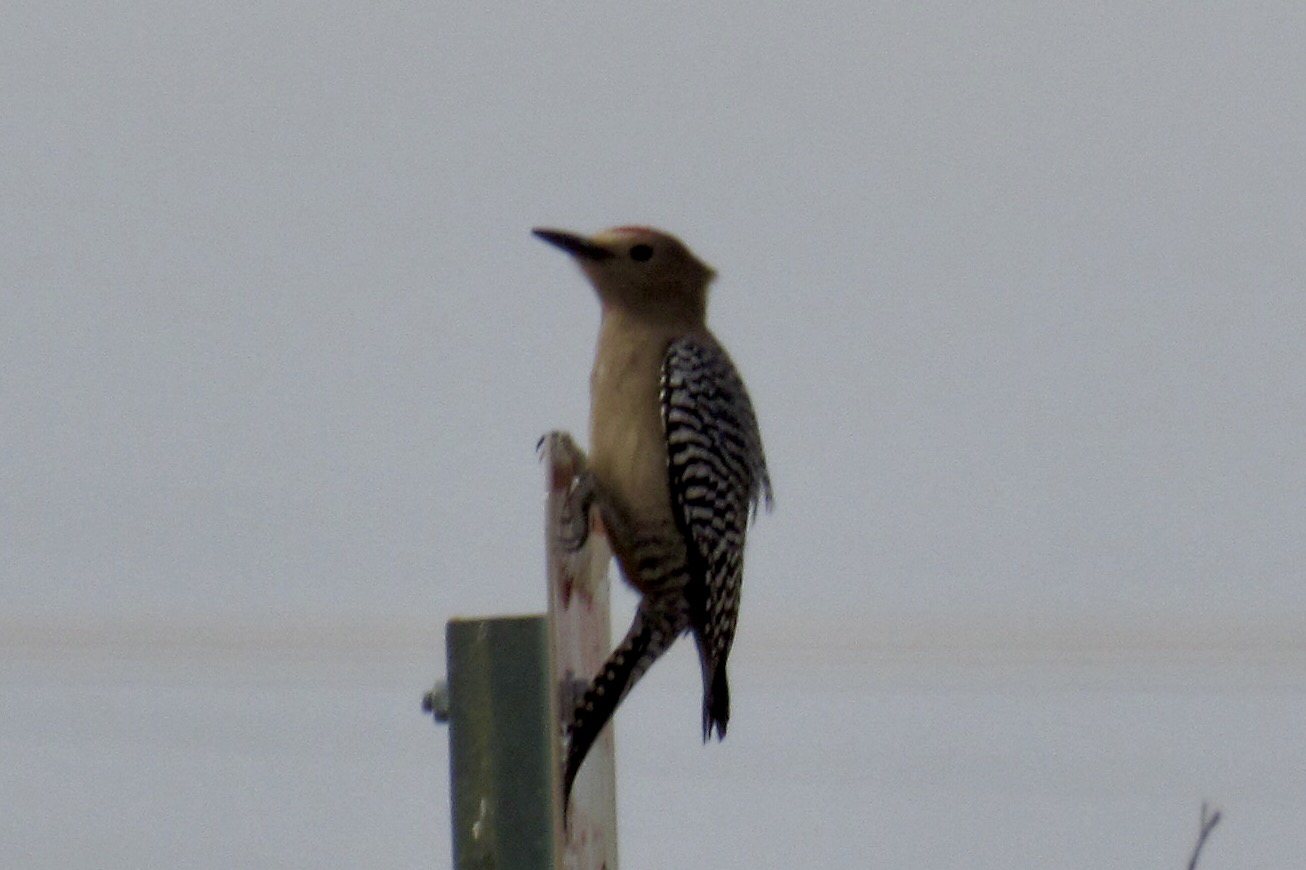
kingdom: Animalia
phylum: Chordata
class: Aves
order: Piciformes
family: Picidae
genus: Melanerpes
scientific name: Melanerpes uropygialis
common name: Gila woodpecker
